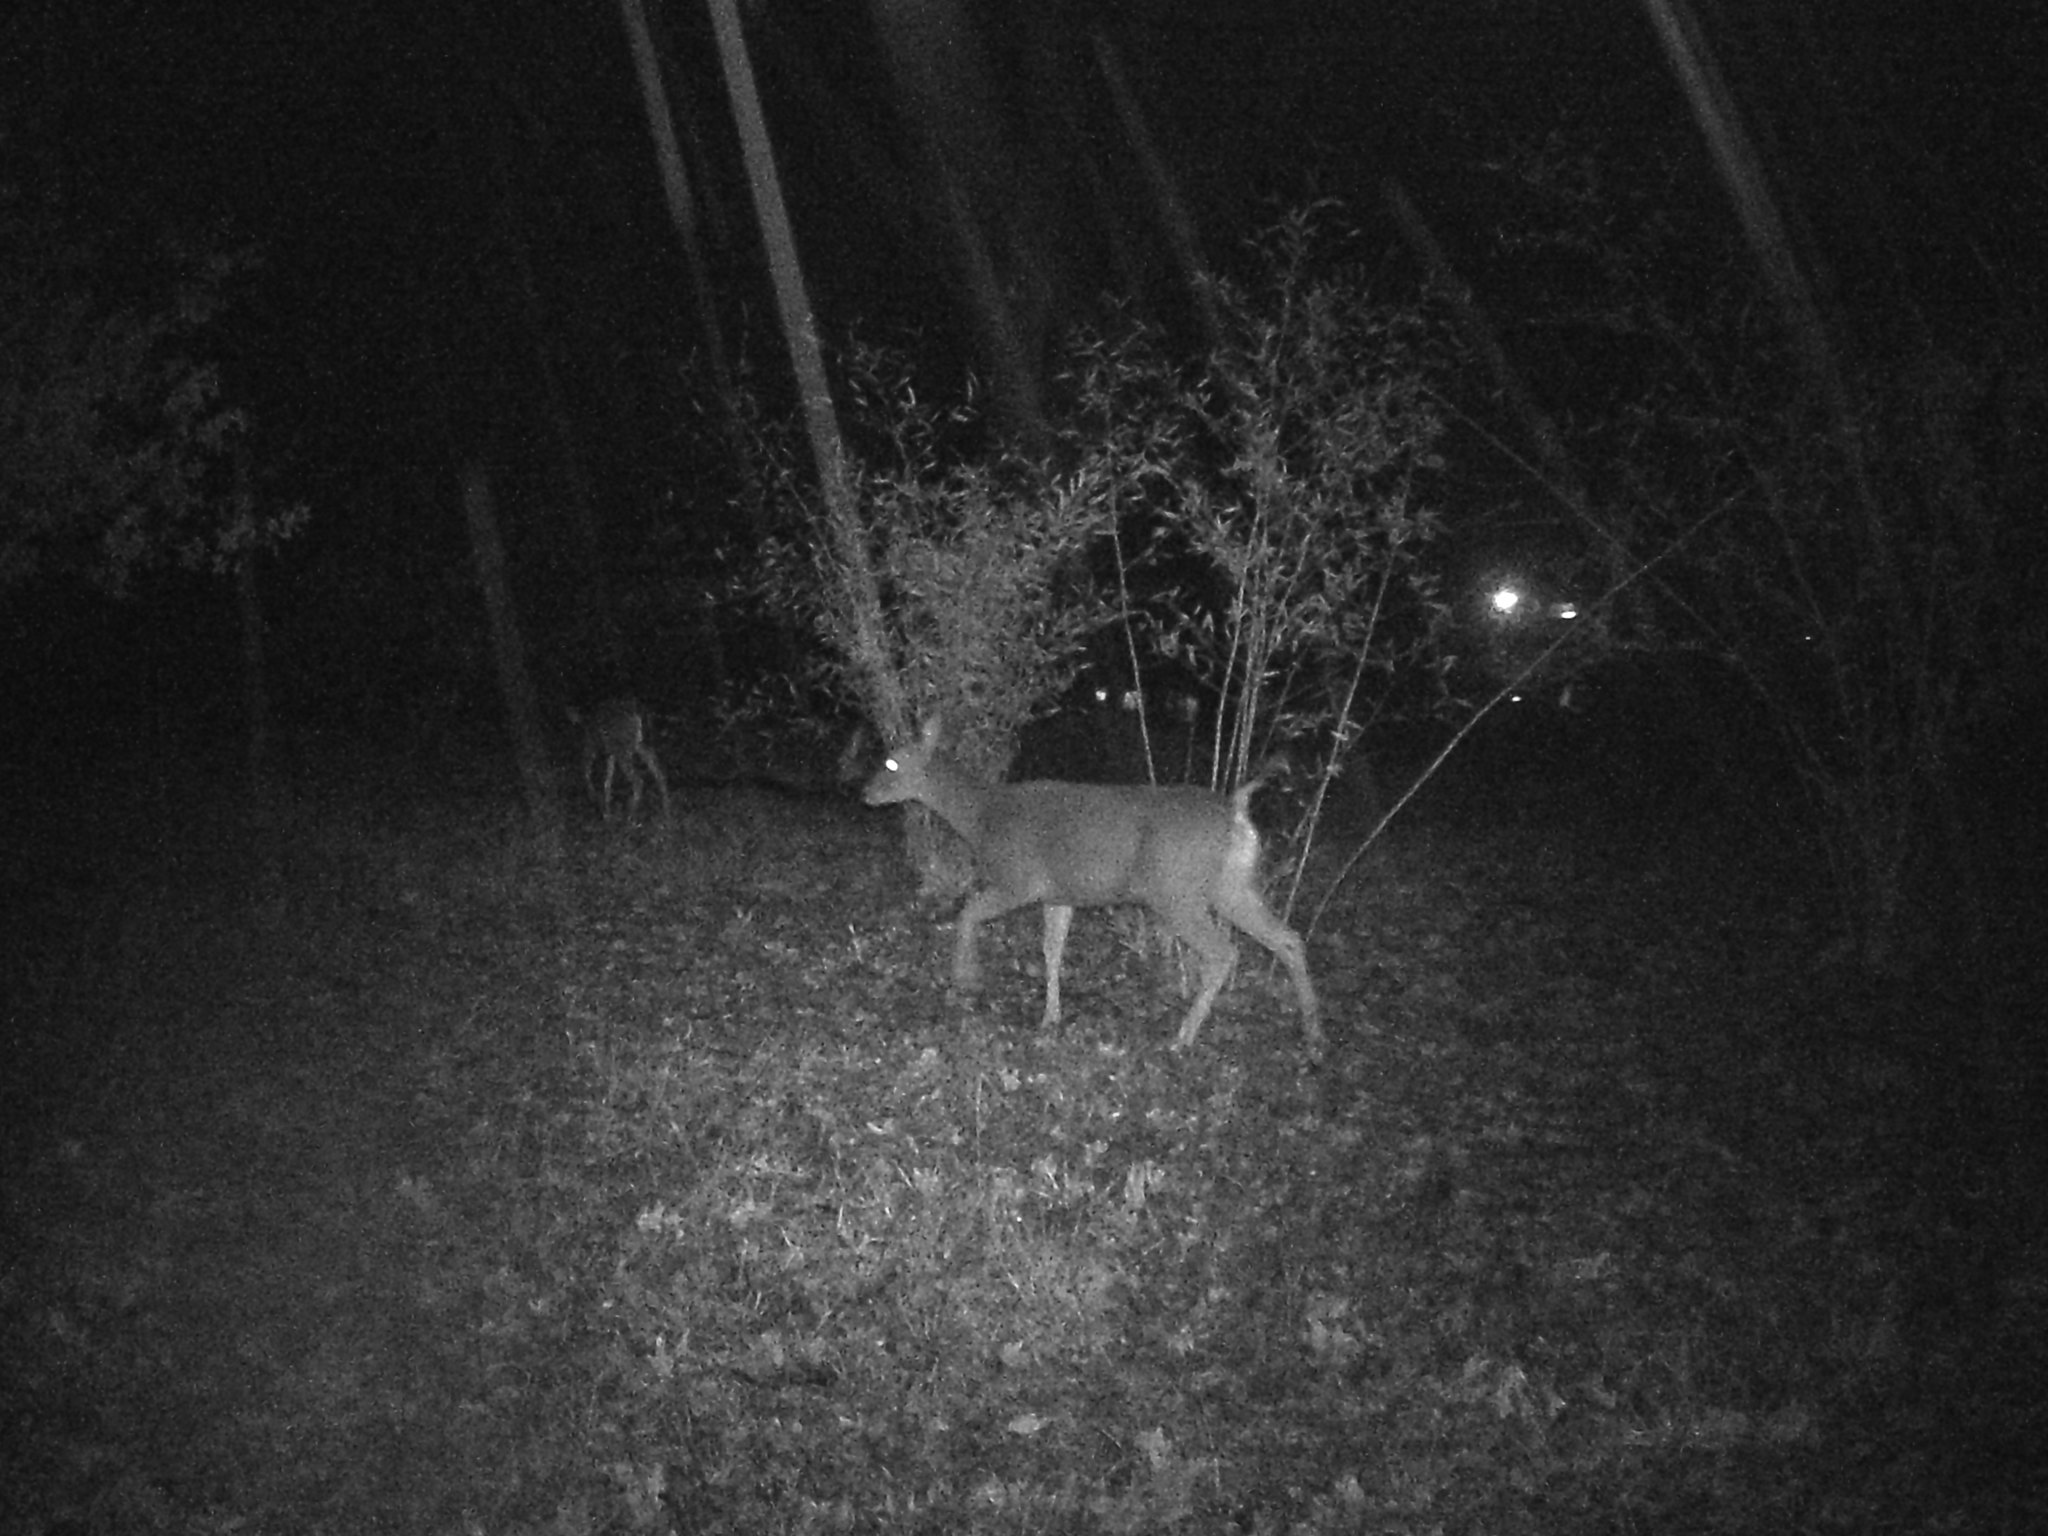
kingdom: Animalia
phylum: Chordata
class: Mammalia
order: Artiodactyla
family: Cervidae
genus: Odocoileus
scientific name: Odocoileus hemionus
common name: Mule deer
